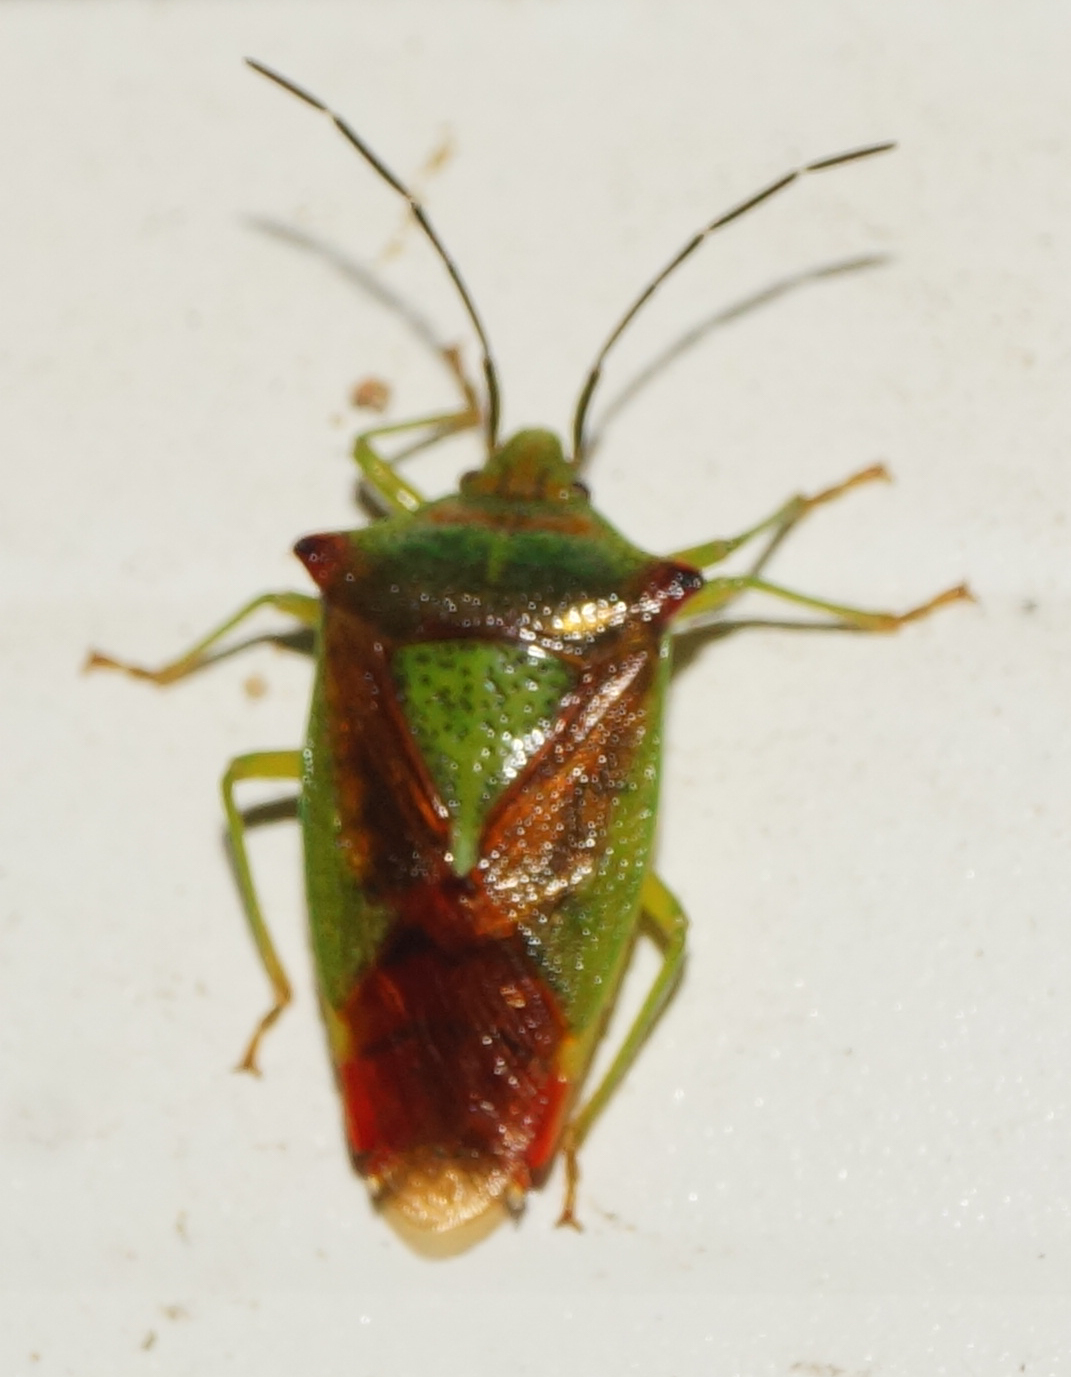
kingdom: Animalia
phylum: Arthropoda
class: Insecta
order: Hemiptera
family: Acanthosomatidae
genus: Acanthosoma
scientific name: Acanthosoma haemorrhoidale
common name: Hawthorn shieldbug
